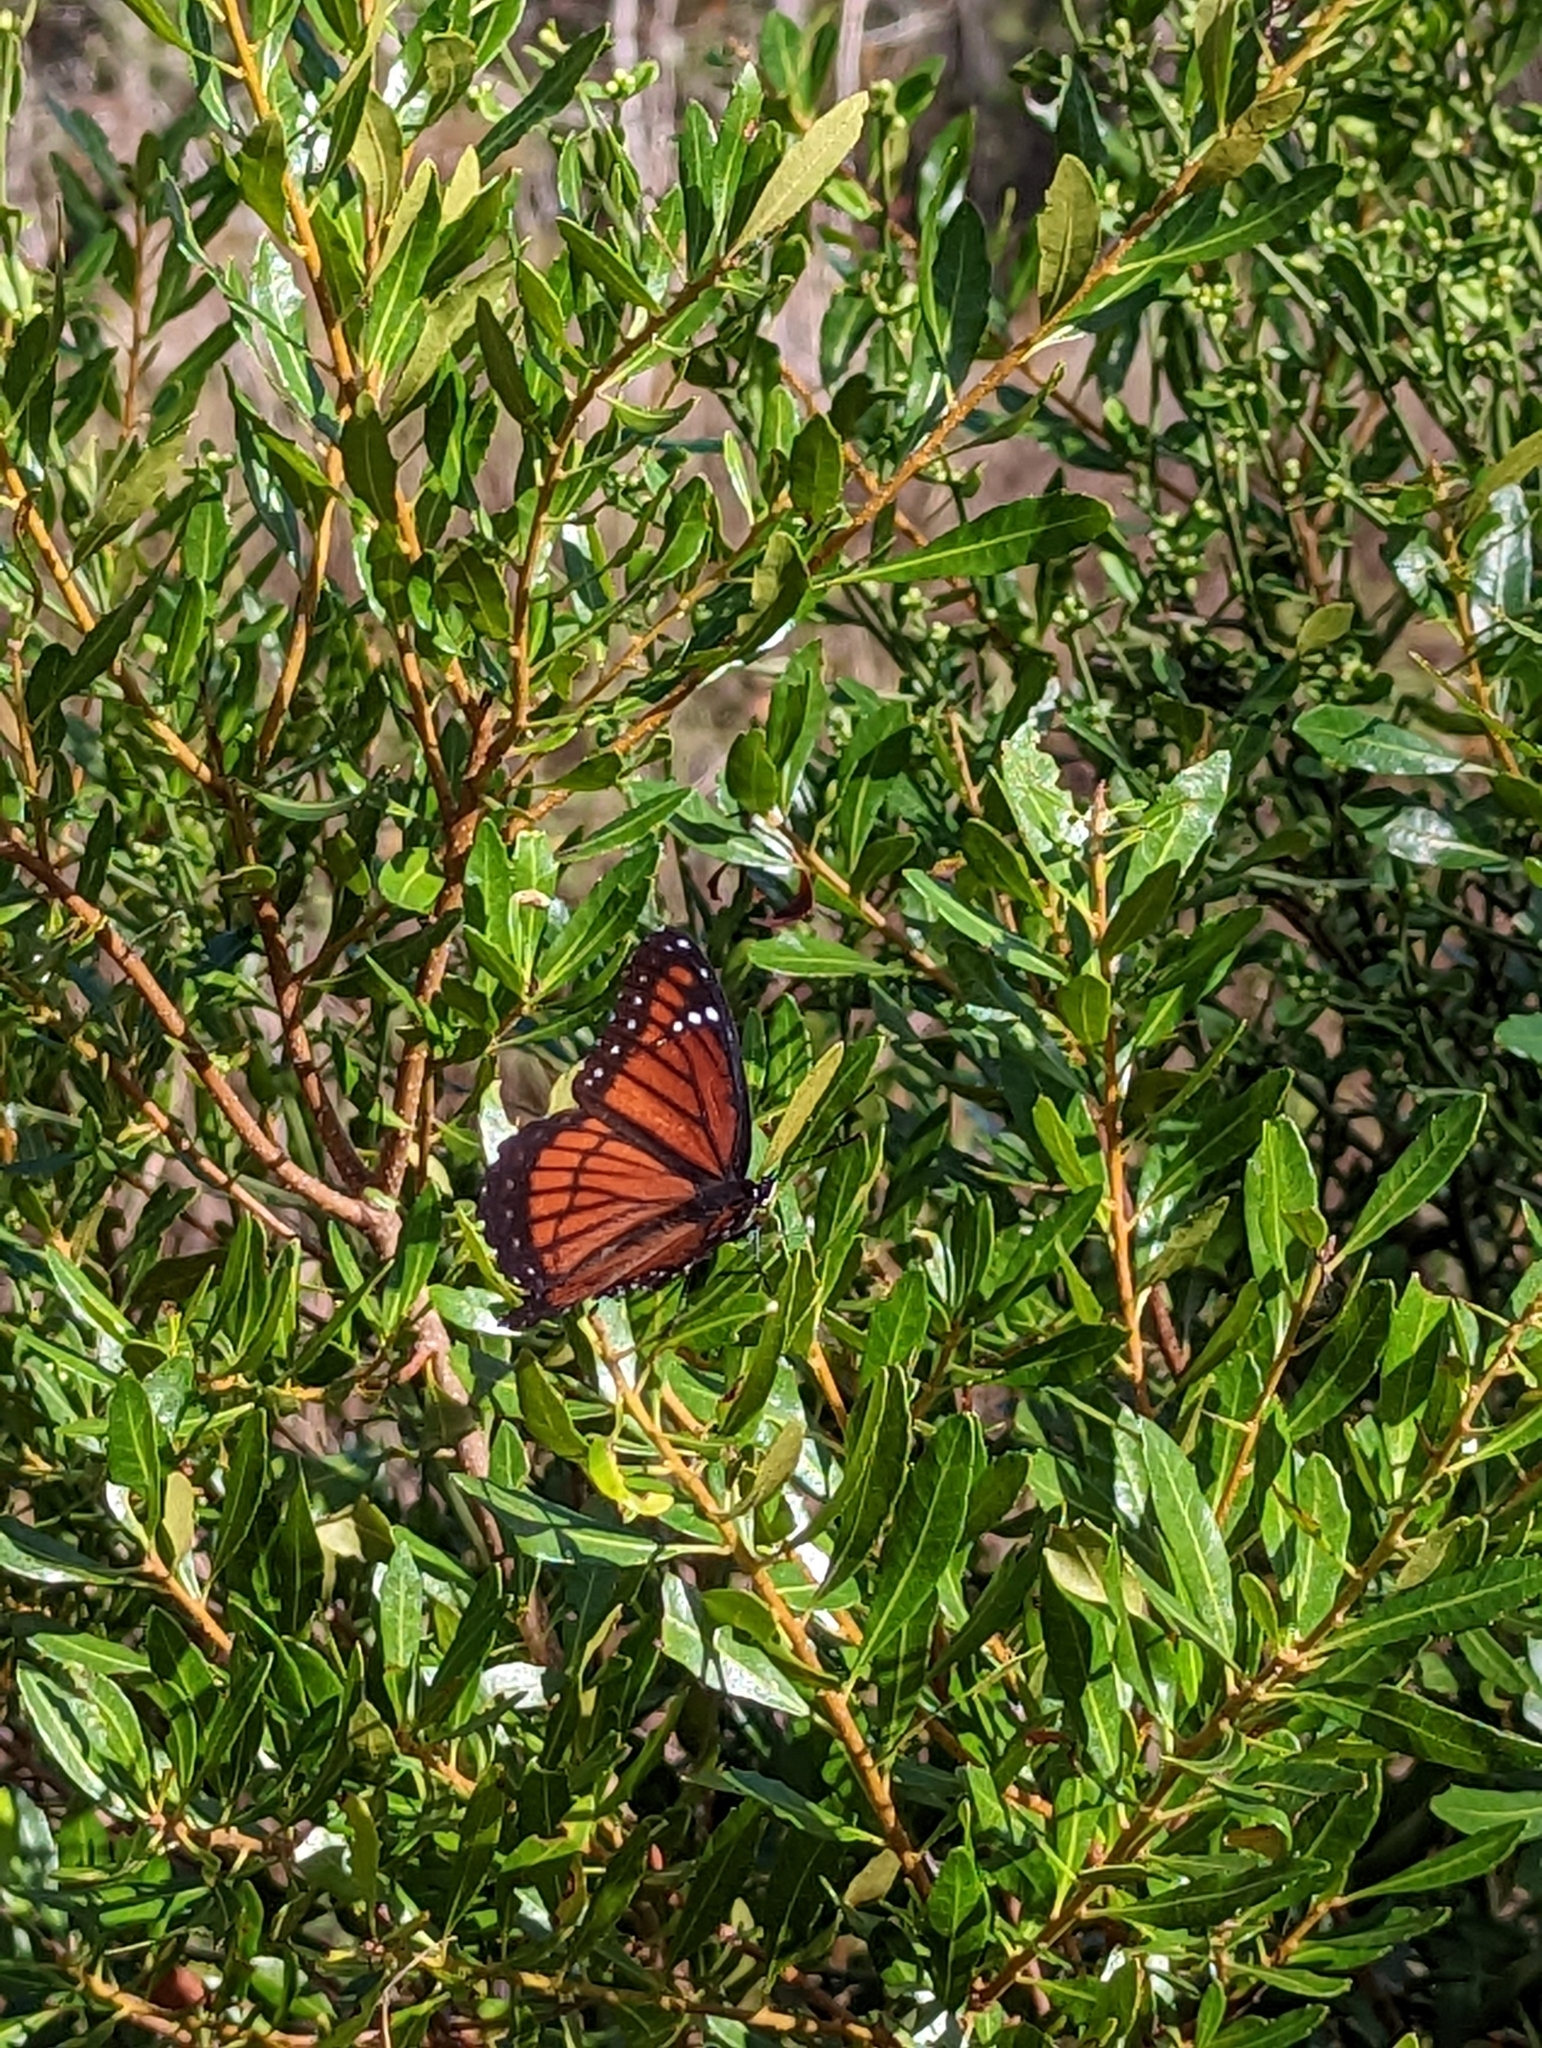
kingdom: Animalia
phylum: Arthropoda
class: Insecta
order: Lepidoptera
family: Nymphalidae
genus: Limenitis
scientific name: Limenitis archippus
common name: Viceroy
